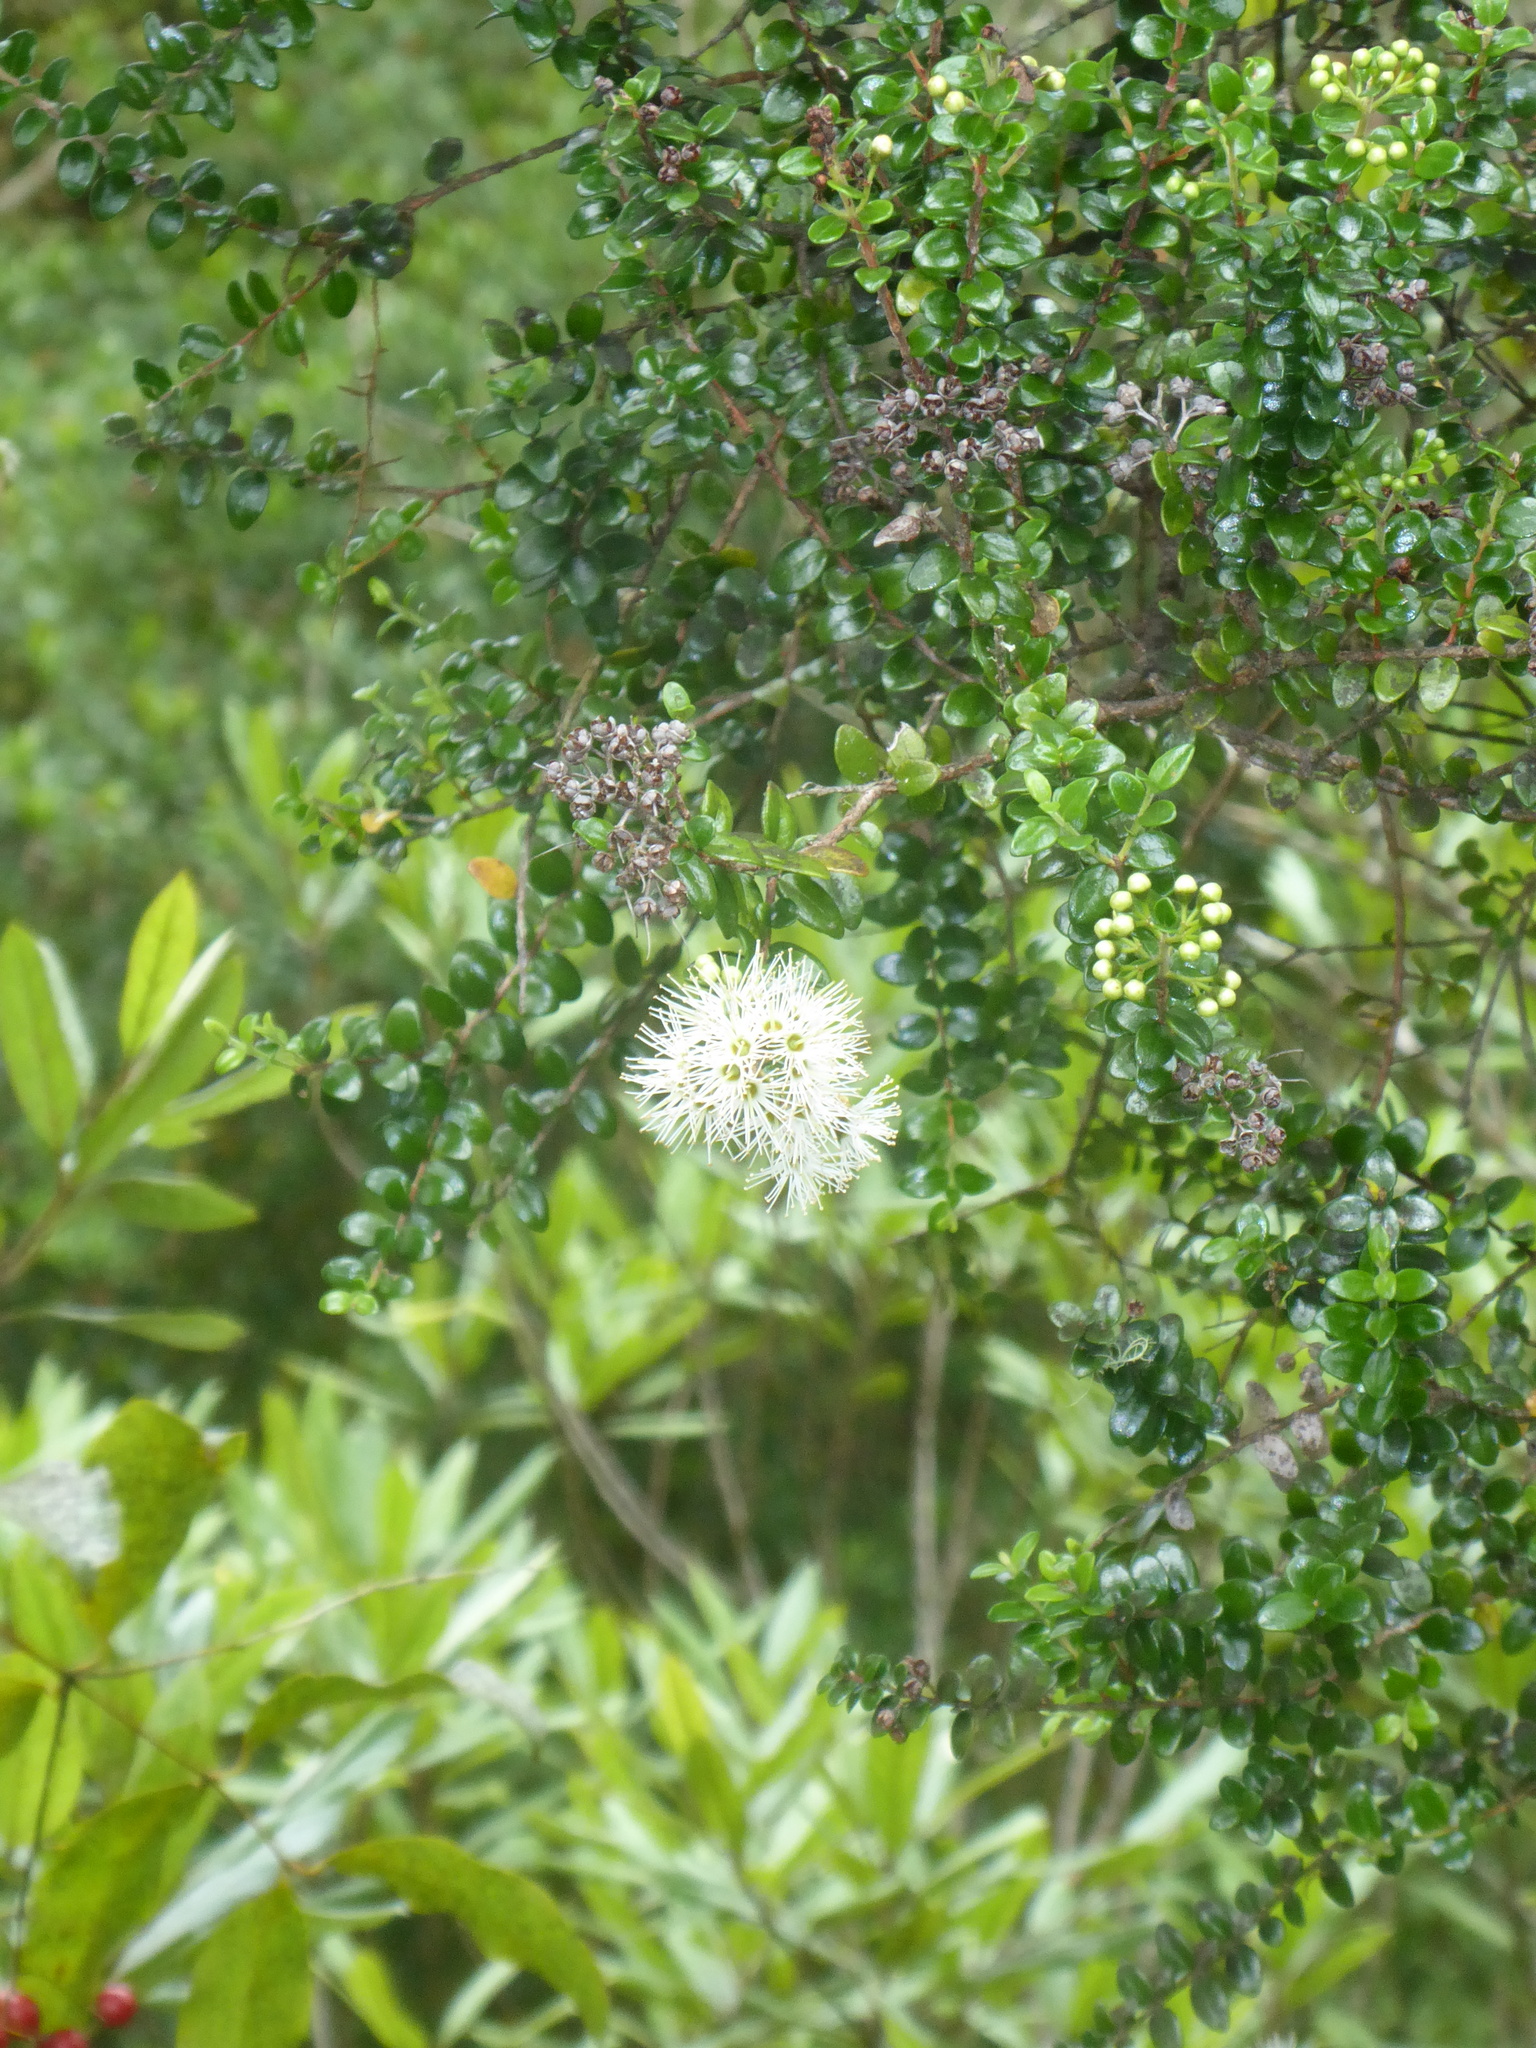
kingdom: Plantae
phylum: Tracheophyta
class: Magnoliopsida
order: Myrtales
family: Myrtaceae
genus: Metrosideros
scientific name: Metrosideros perforata
